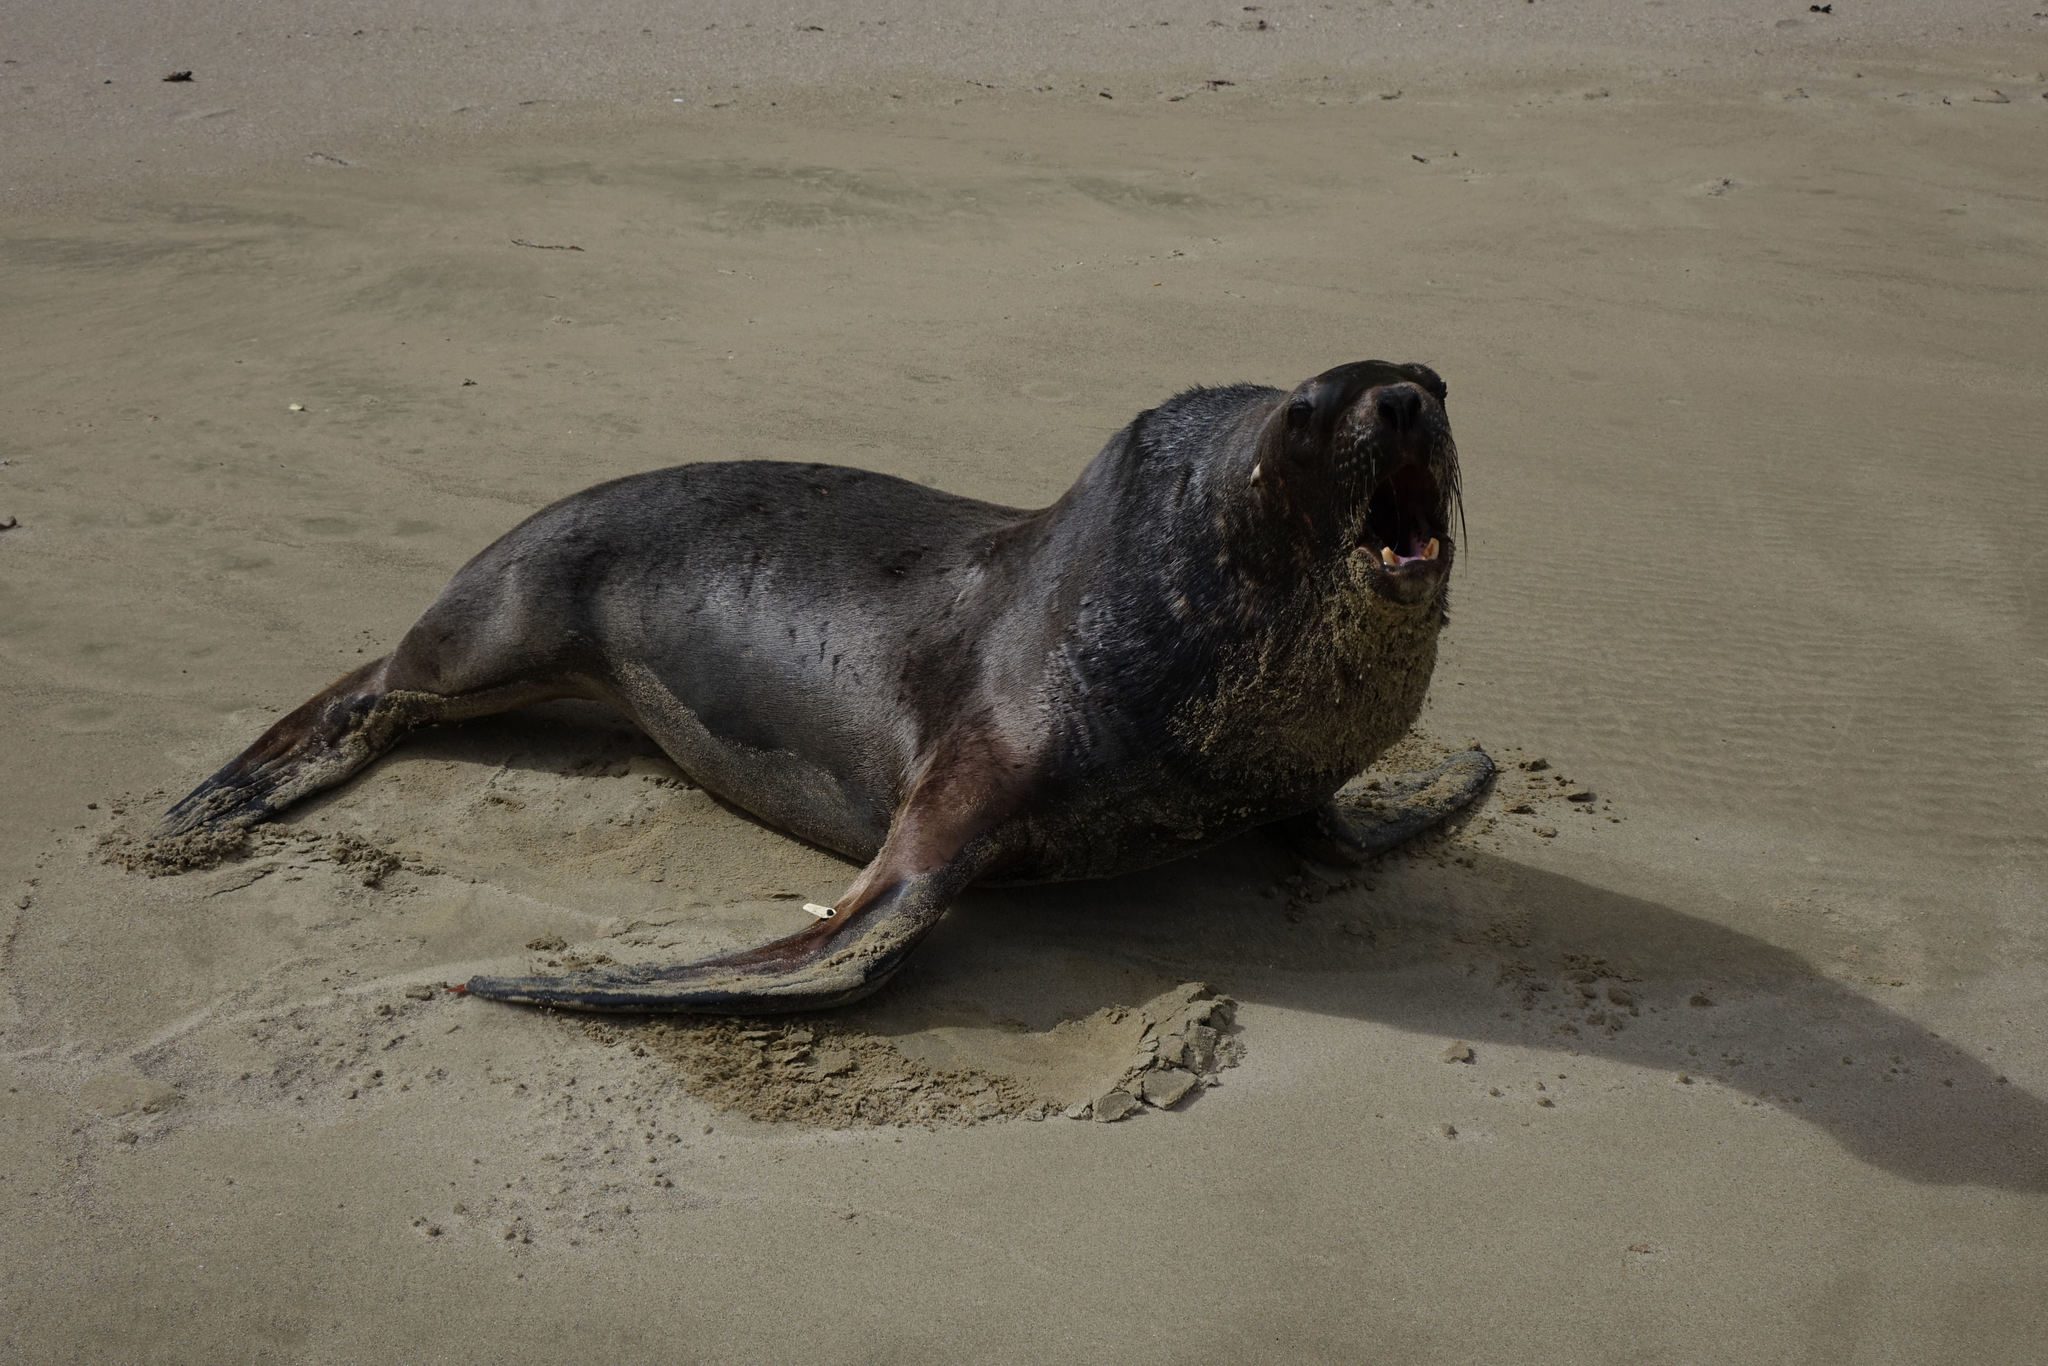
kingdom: Animalia
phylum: Chordata
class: Mammalia
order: Carnivora
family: Otariidae
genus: Phocarctos
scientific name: Phocarctos hookeri
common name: New zealand sea lion
